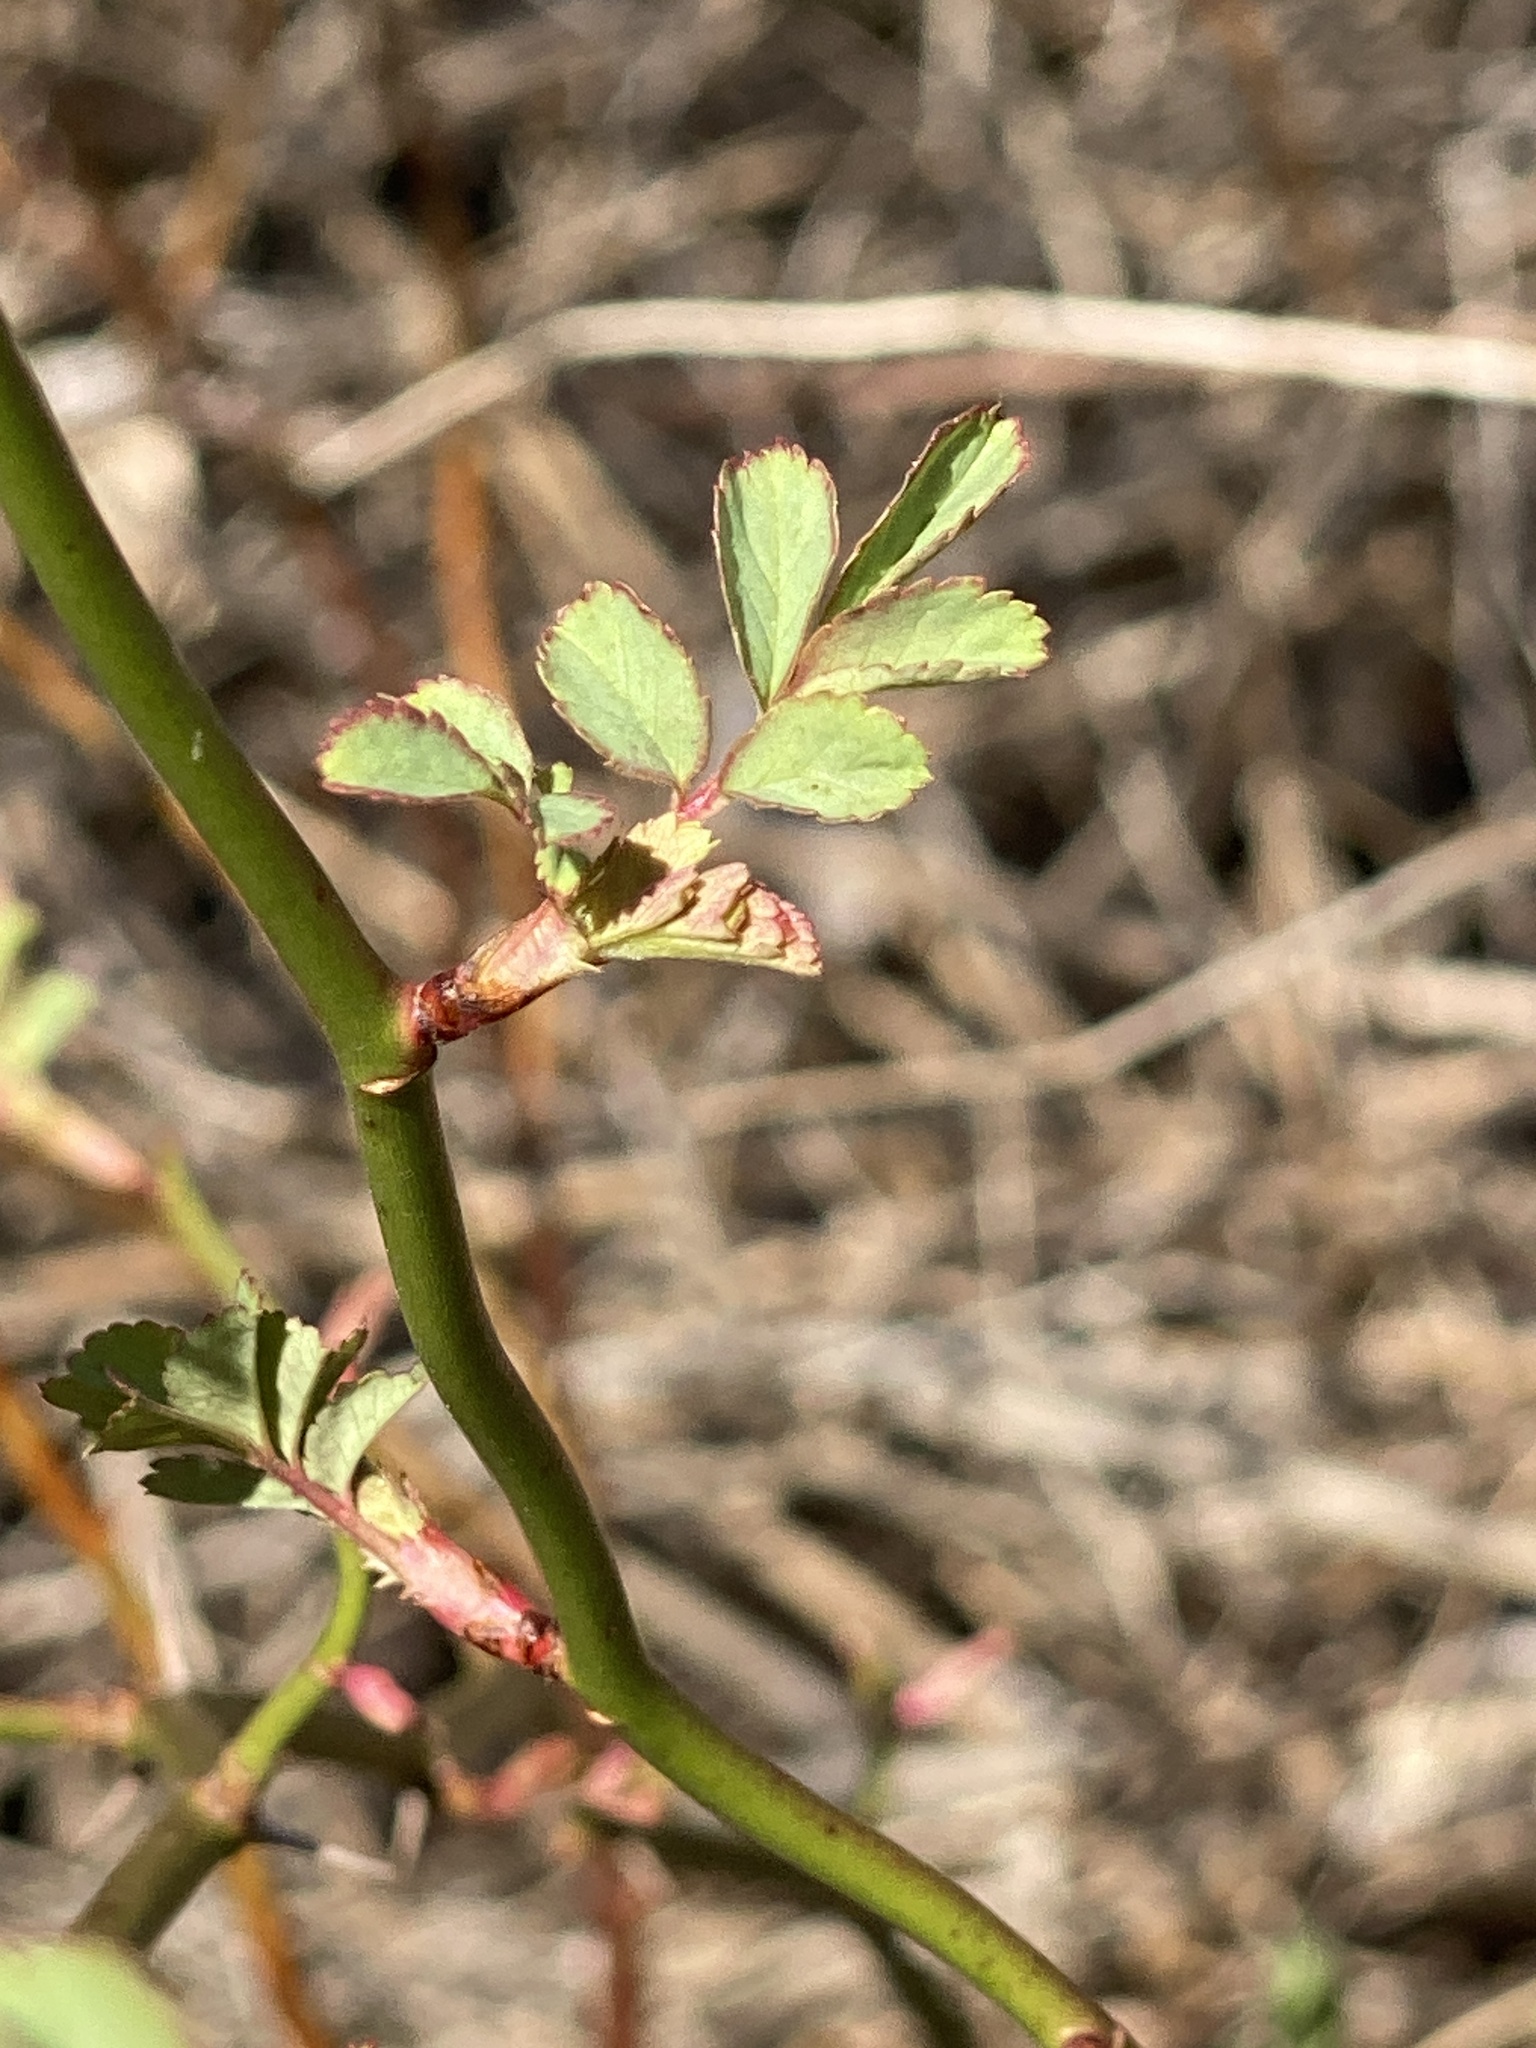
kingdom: Plantae
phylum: Tracheophyta
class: Magnoliopsida
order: Rosales
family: Rosaceae
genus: Rosa
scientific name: Rosa multiflora
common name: Multiflora rose
